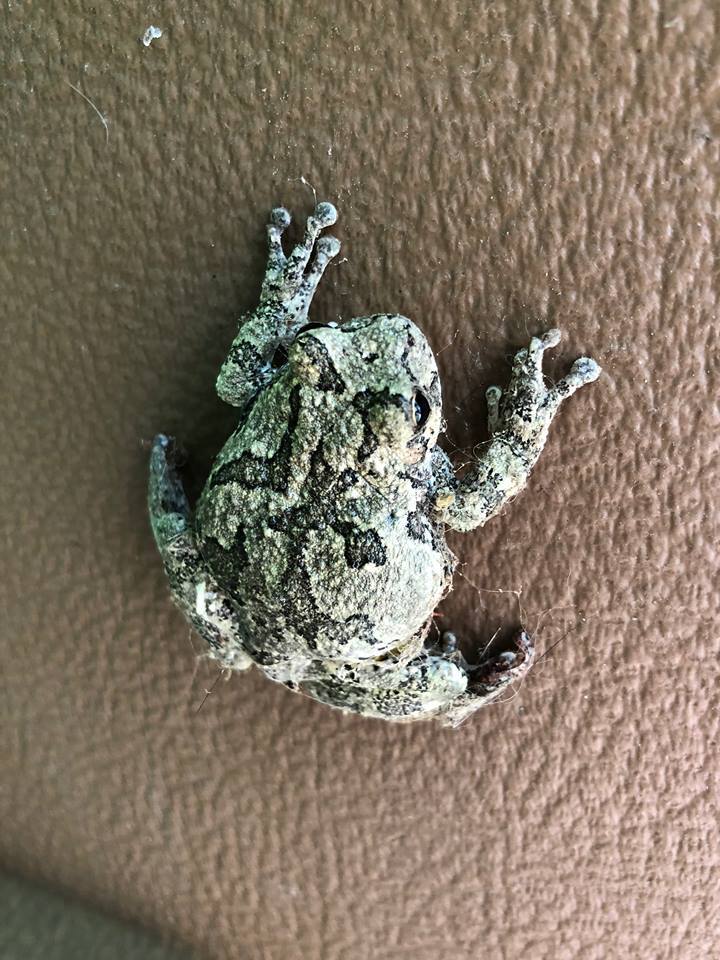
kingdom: Animalia
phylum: Chordata
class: Amphibia
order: Anura
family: Hylidae
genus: Hyla
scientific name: Hyla
